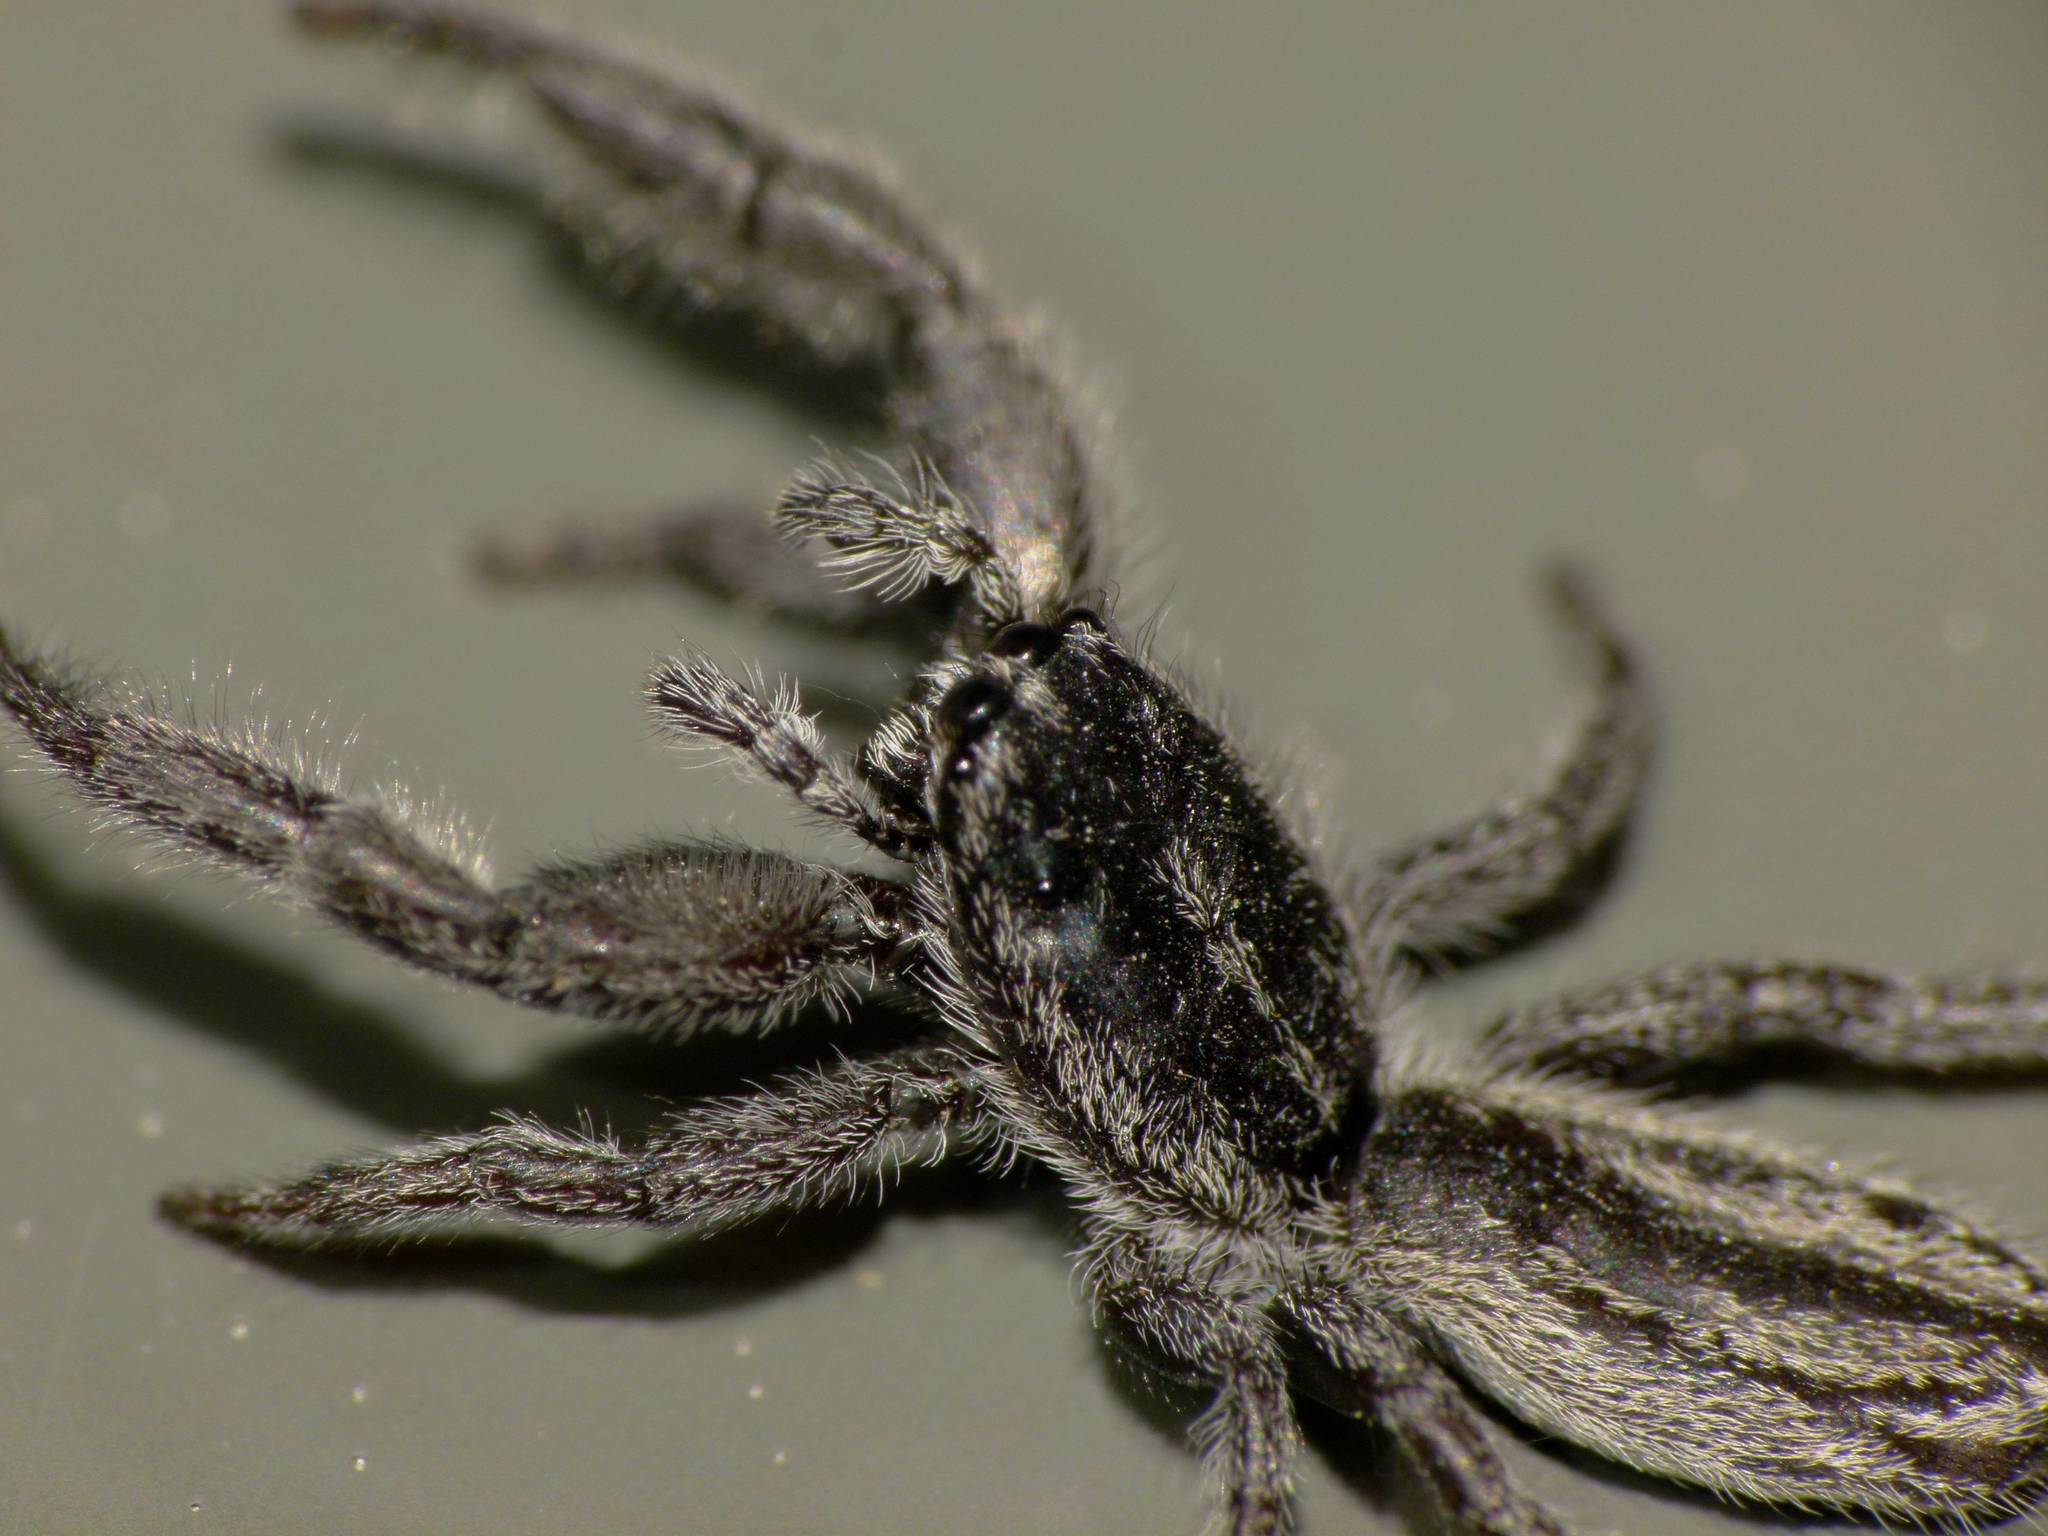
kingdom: Animalia
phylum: Arthropoda
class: Arachnida
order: Araneae
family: Salticidae
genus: Holoplatys
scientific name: Holoplatys apressus
